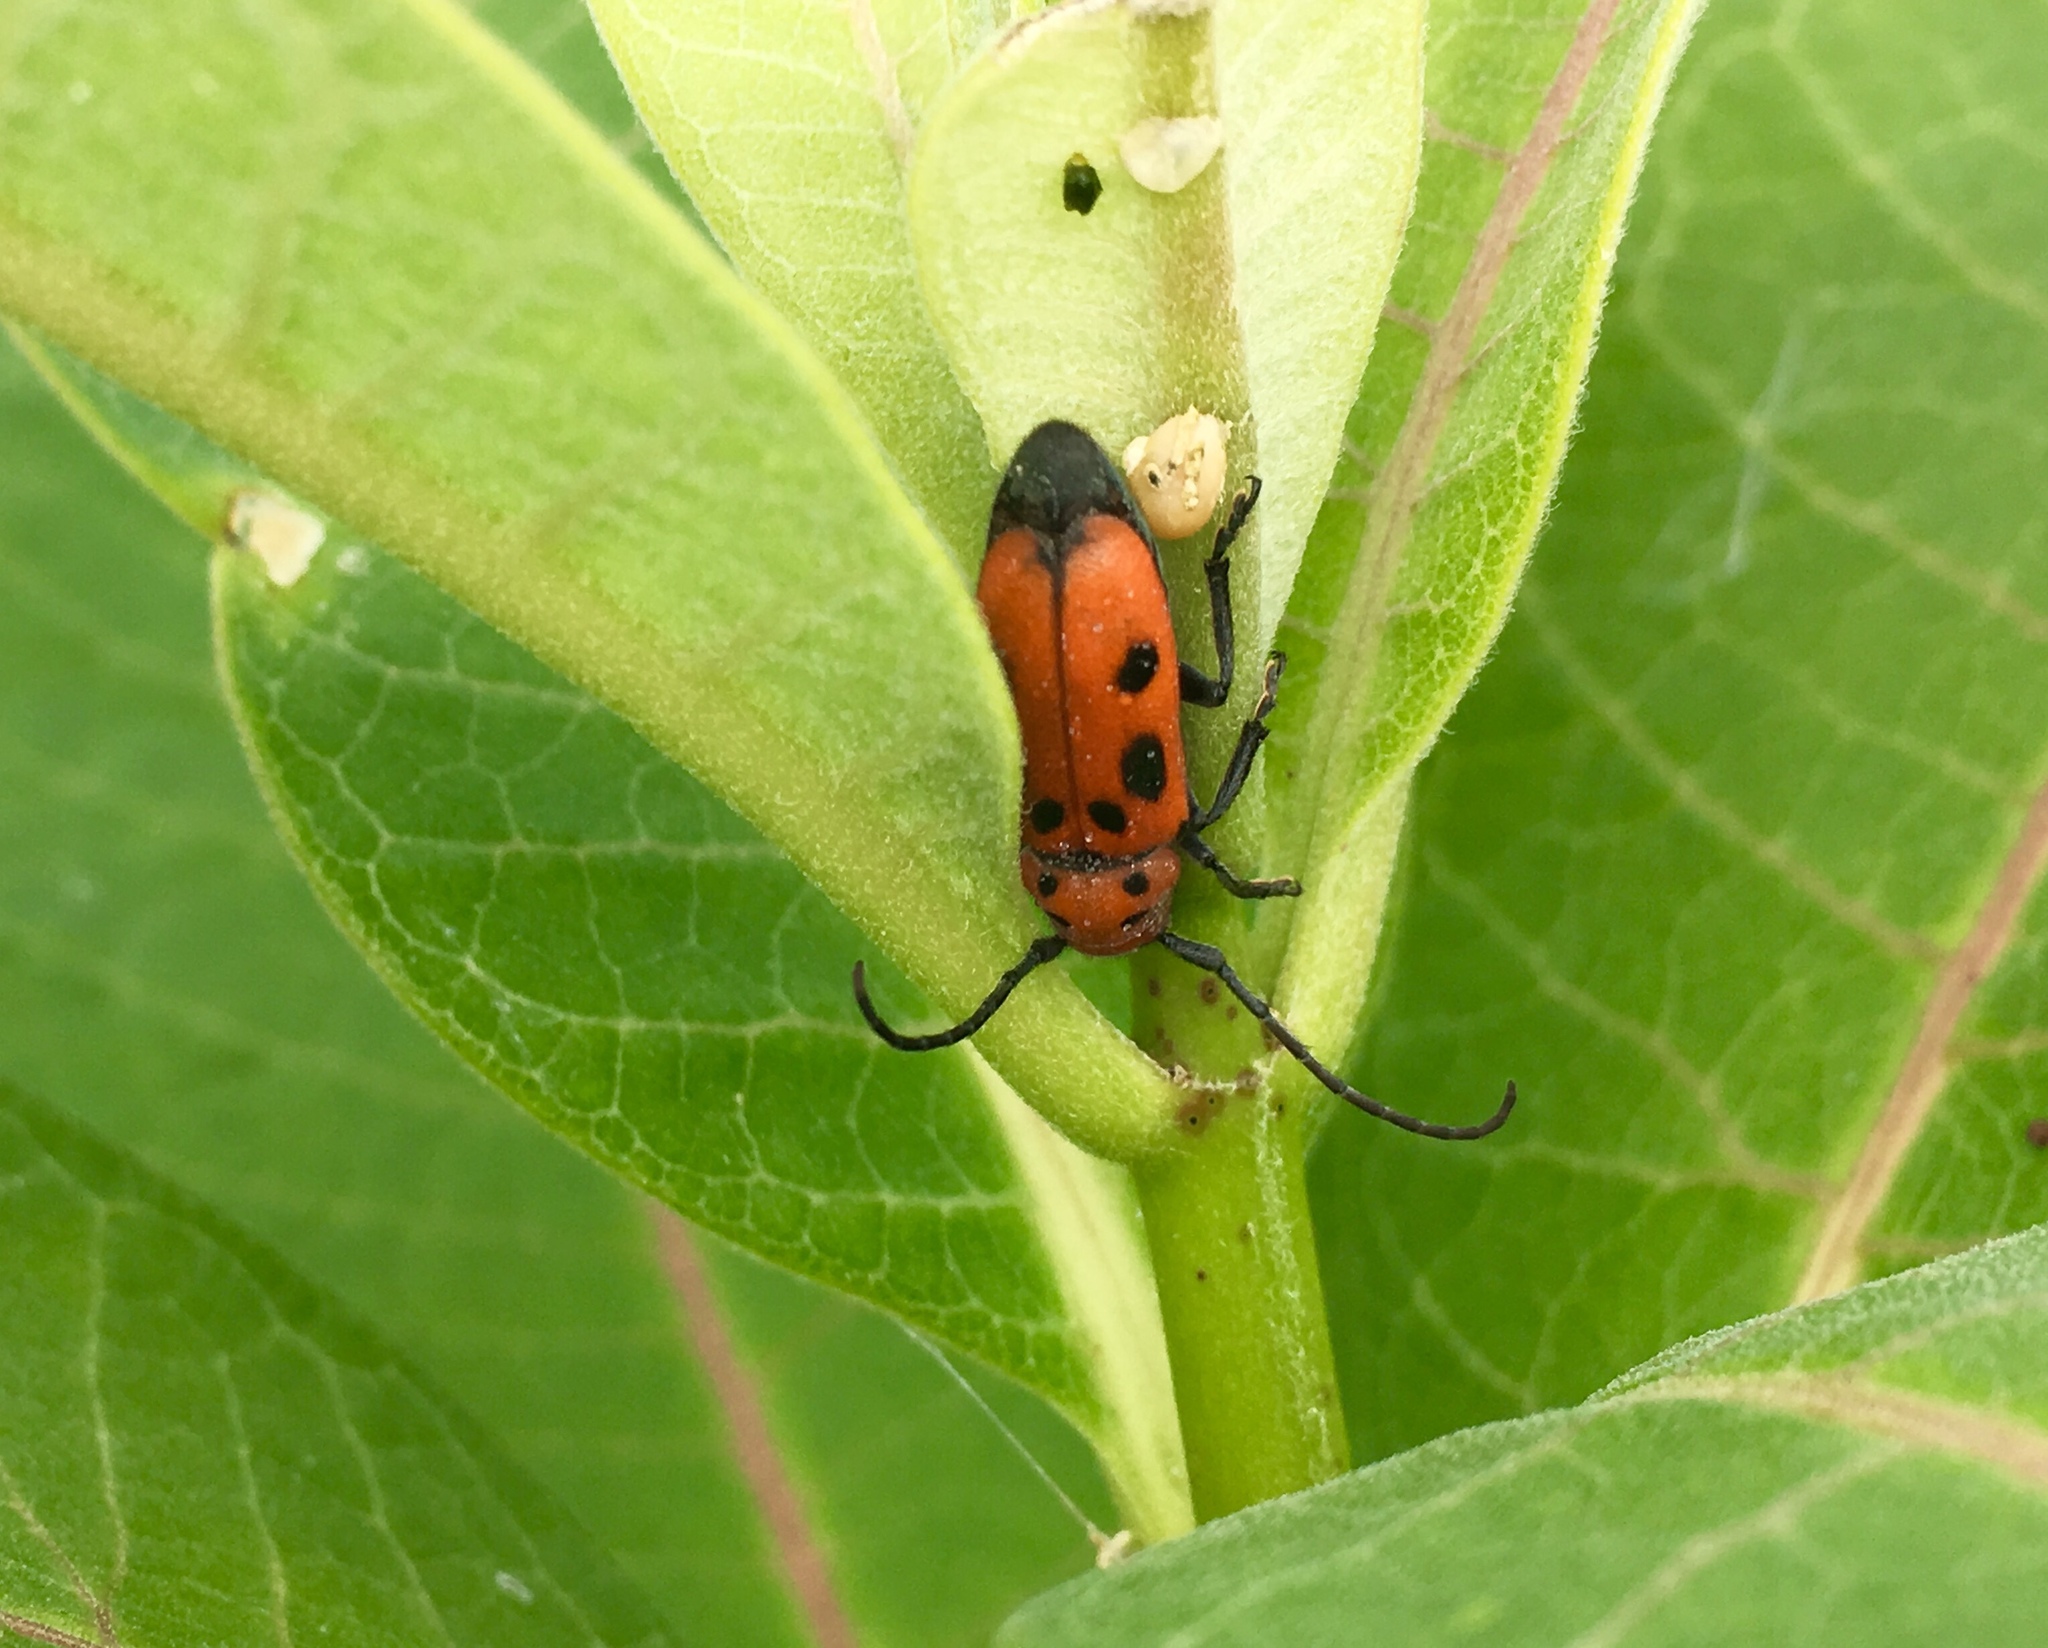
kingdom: Animalia
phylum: Arthropoda
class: Insecta
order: Coleoptera
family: Cerambycidae
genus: Tetraopes
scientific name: Tetraopes tetrophthalmus
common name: Red milkweed beetle
